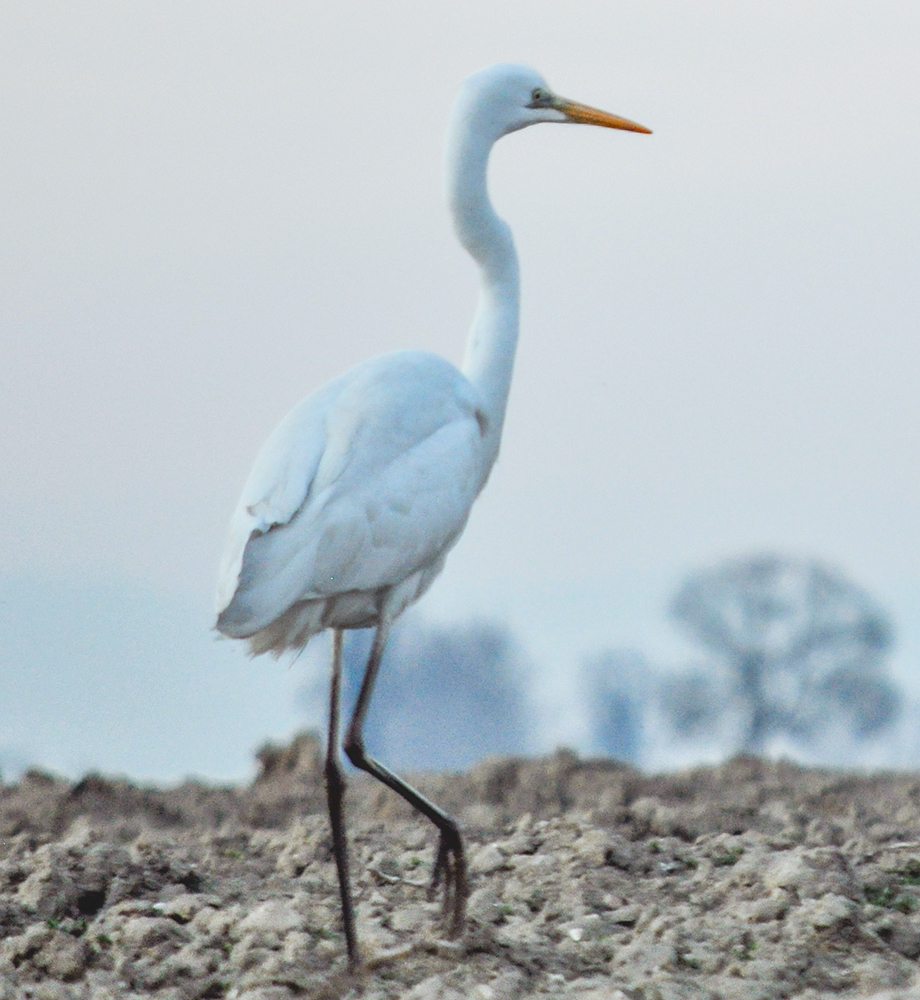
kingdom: Animalia
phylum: Chordata
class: Aves
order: Pelecaniformes
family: Ardeidae
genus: Ardea
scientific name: Ardea alba
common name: Great egret
